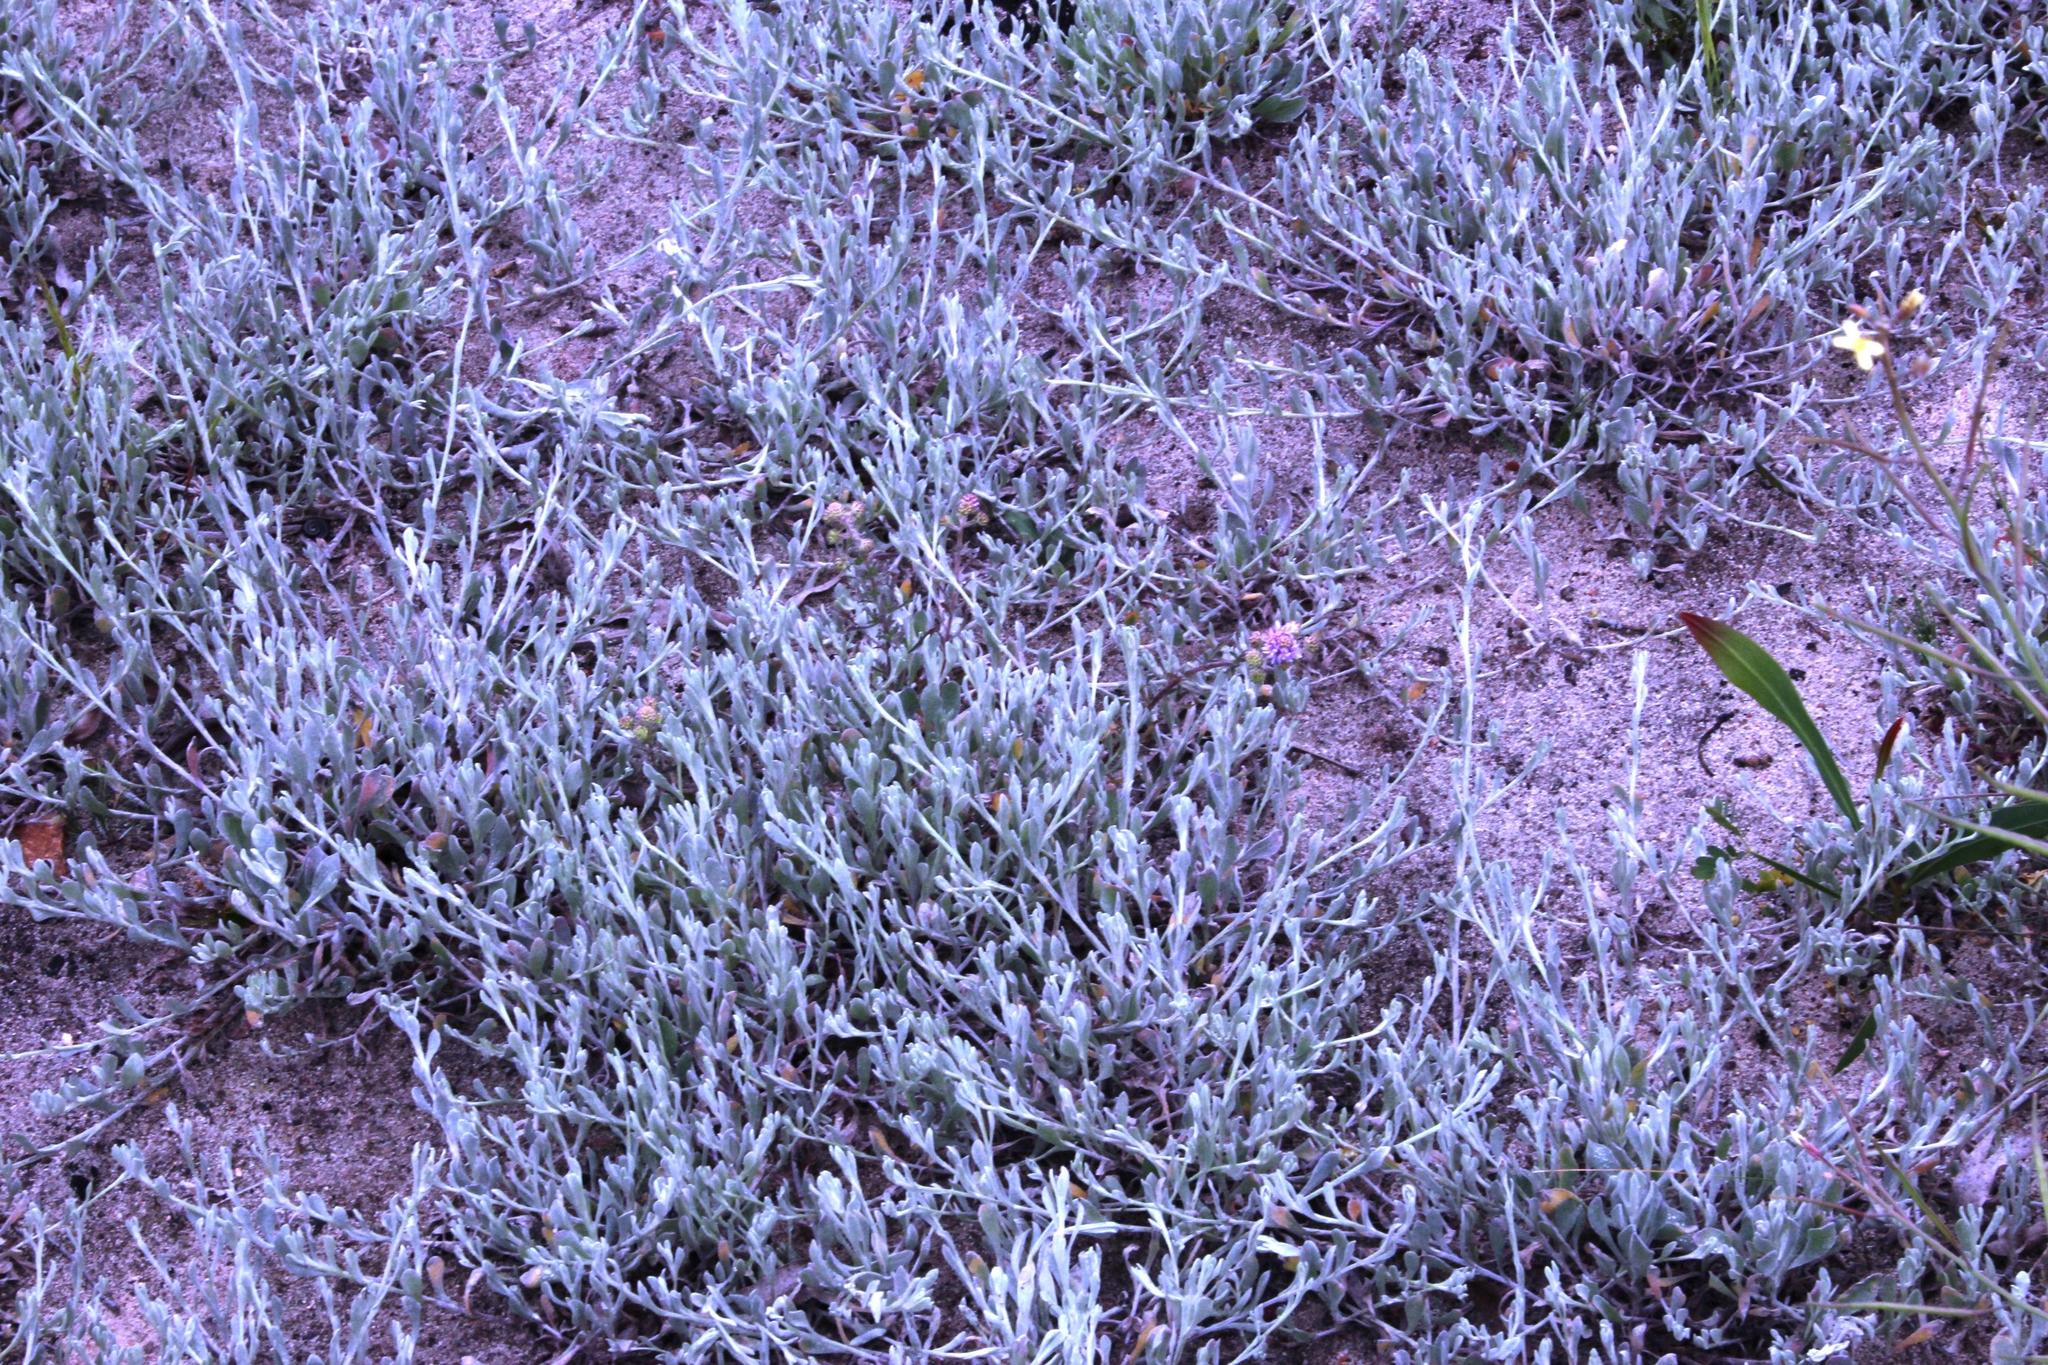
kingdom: Plantae
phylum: Tracheophyta
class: Magnoliopsida
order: Asterales
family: Asteraceae
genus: Vellereophyton
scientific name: Vellereophyton dealbatum
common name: White-cudweed
